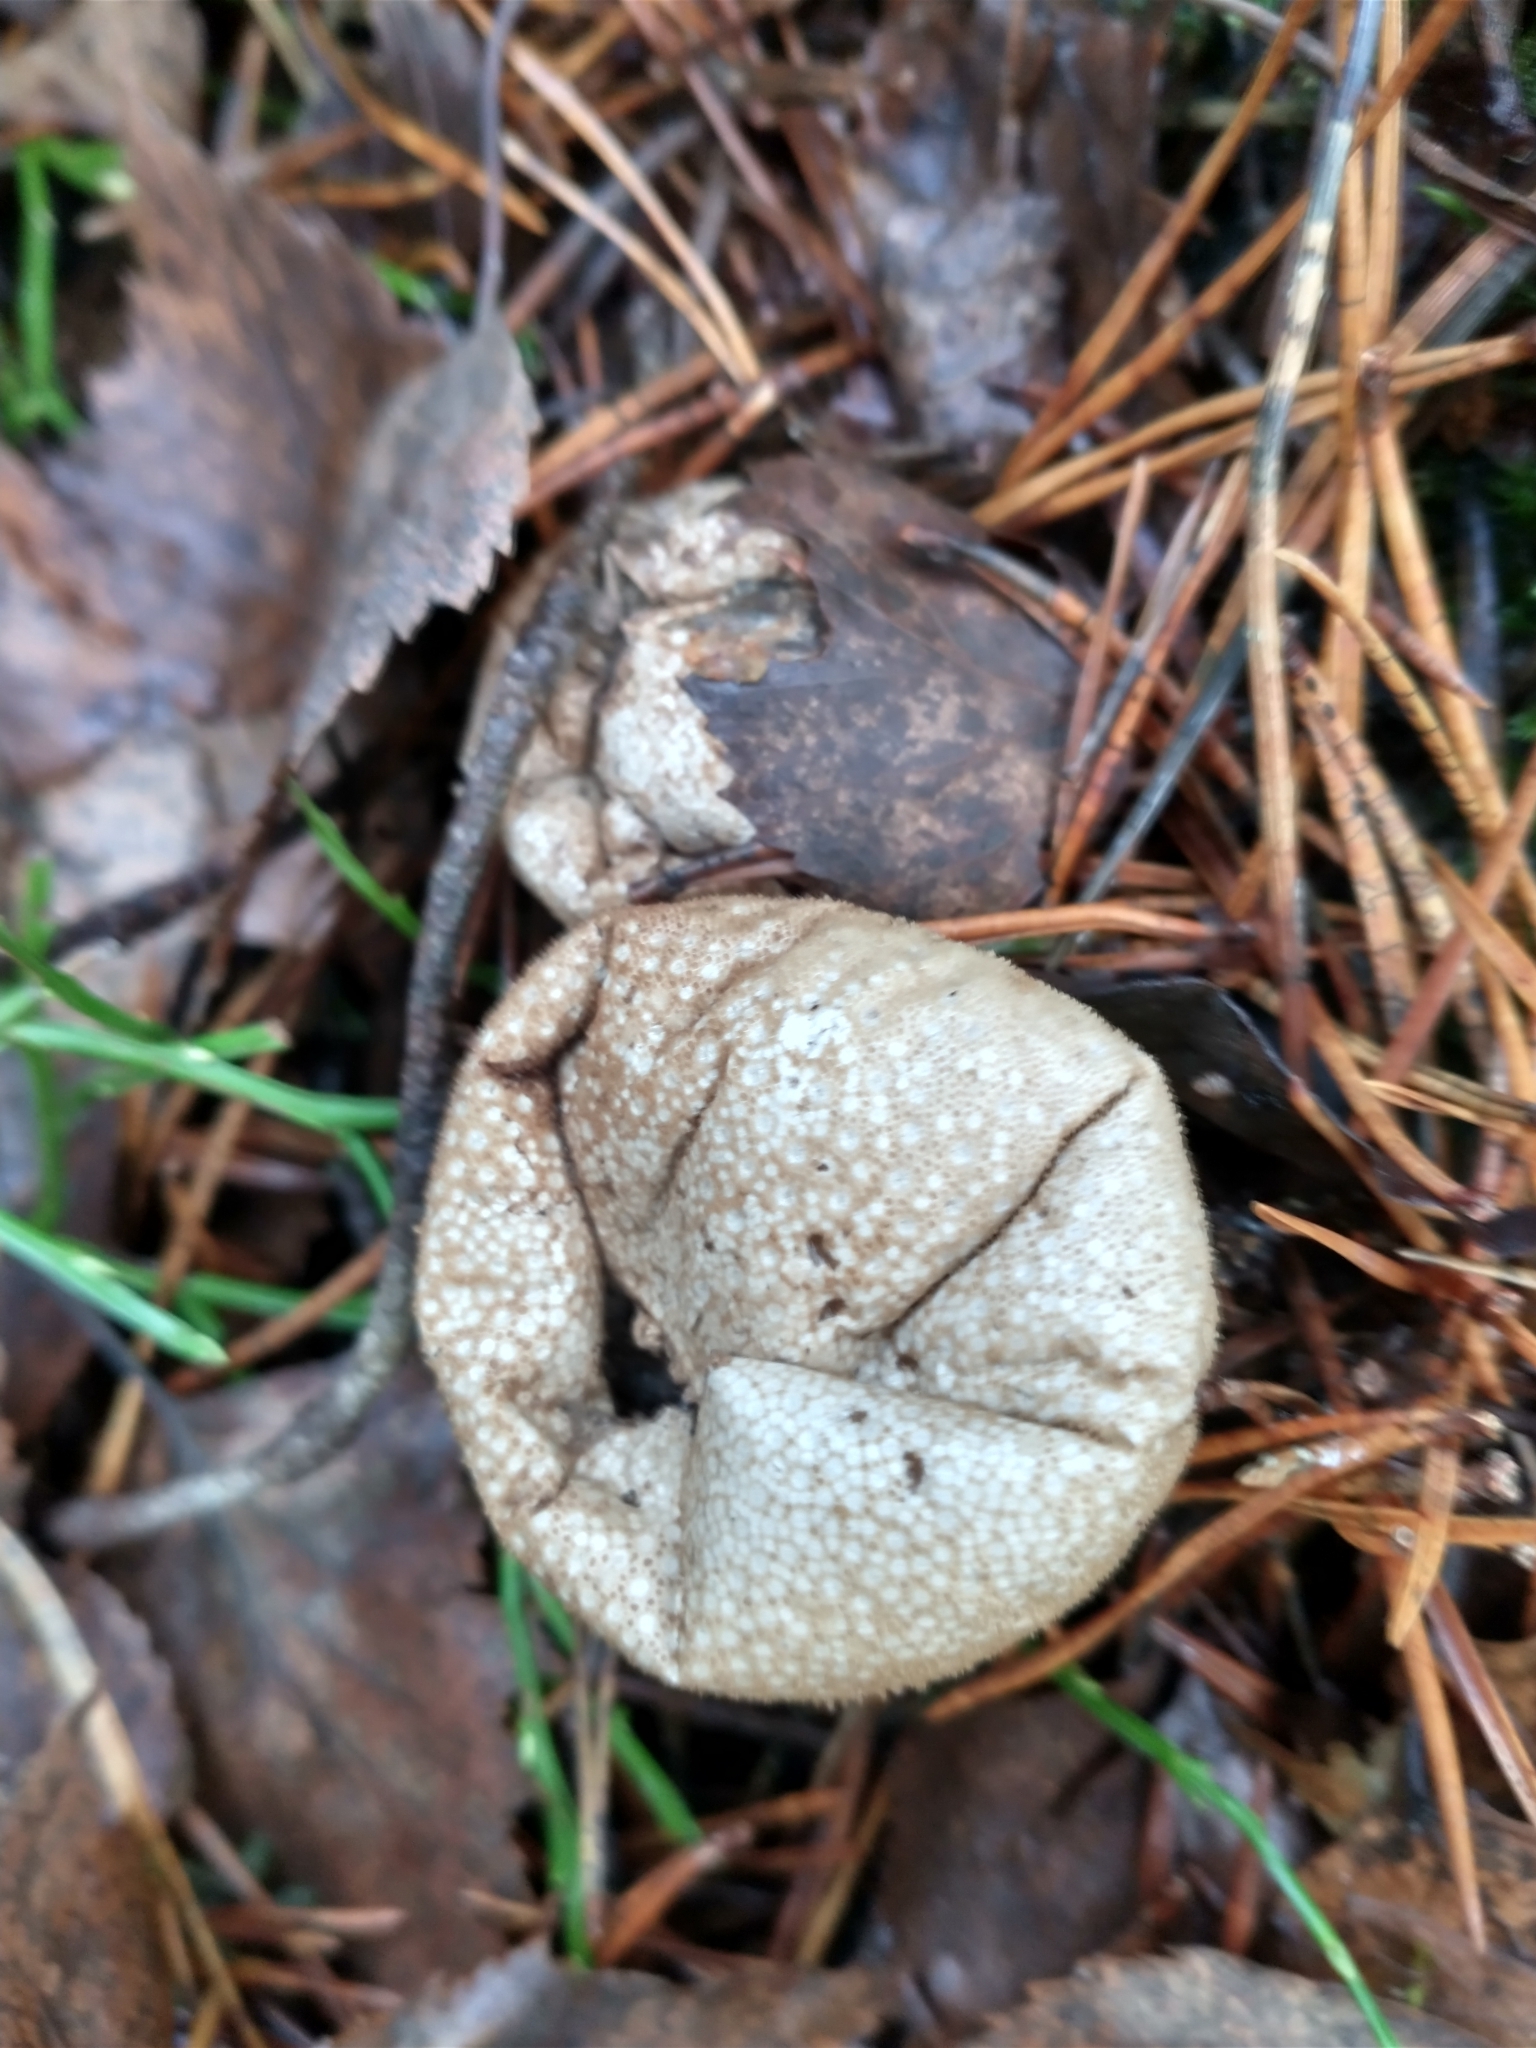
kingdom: Fungi
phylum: Basidiomycota
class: Agaricomycetes
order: Agaricales
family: Lycoperdaceae
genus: Lycoperdon
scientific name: Lycoperdon excipuliforme
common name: Pestle puffball
